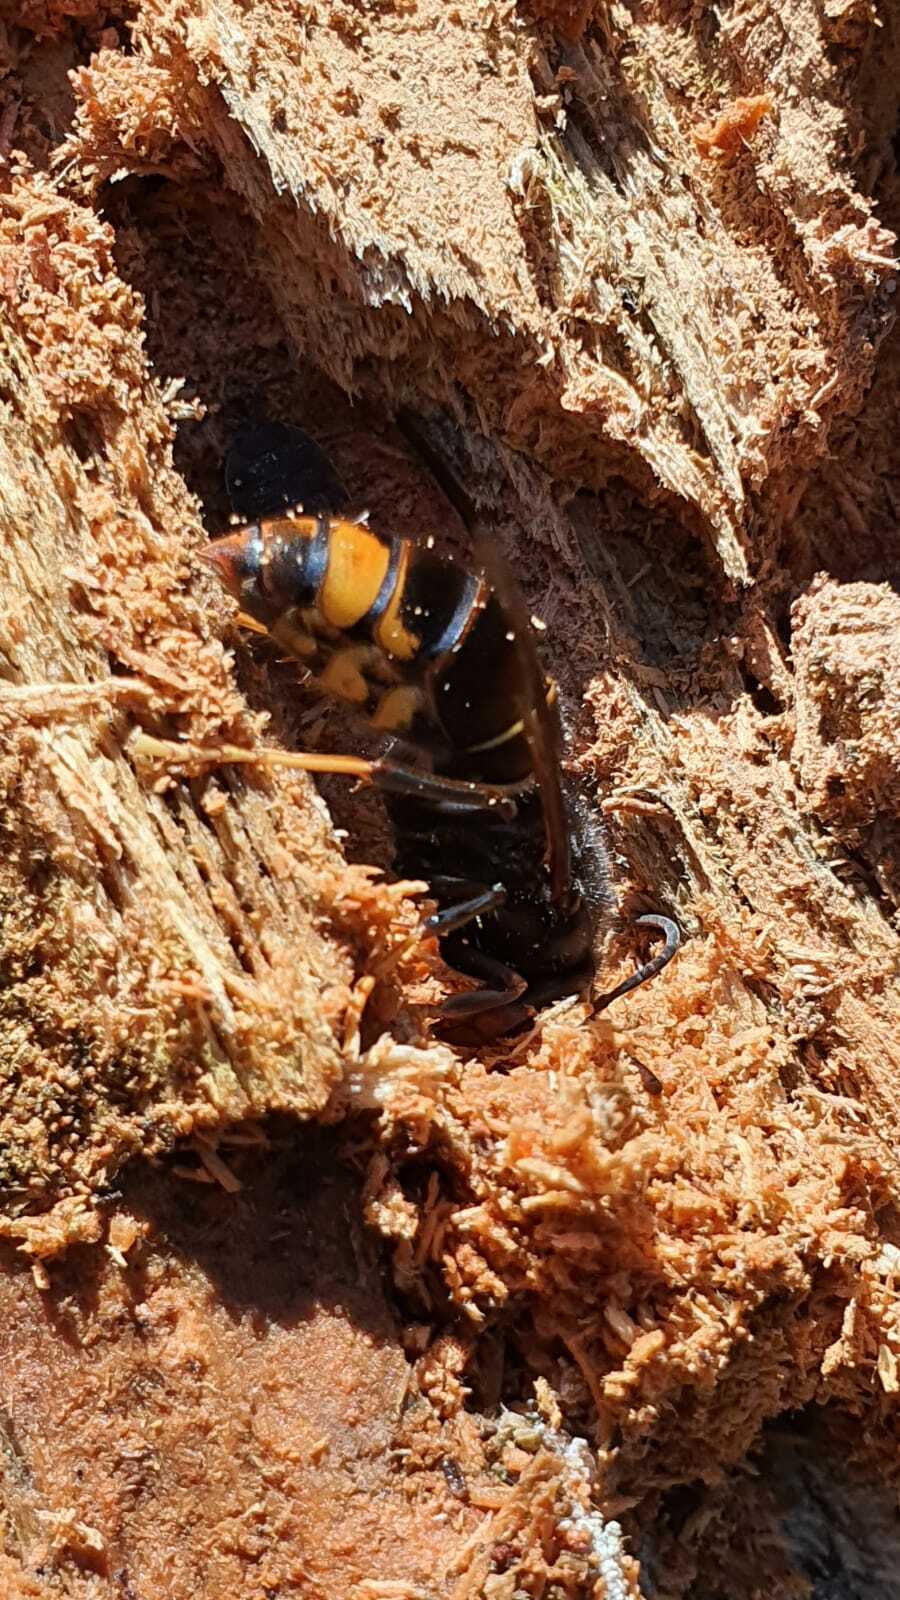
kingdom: Animalia
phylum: Arthropoda
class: Insecta
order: Hymenoptera
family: Vespidae
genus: Vespa
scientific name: Vespa velutina
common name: Asian hornet
